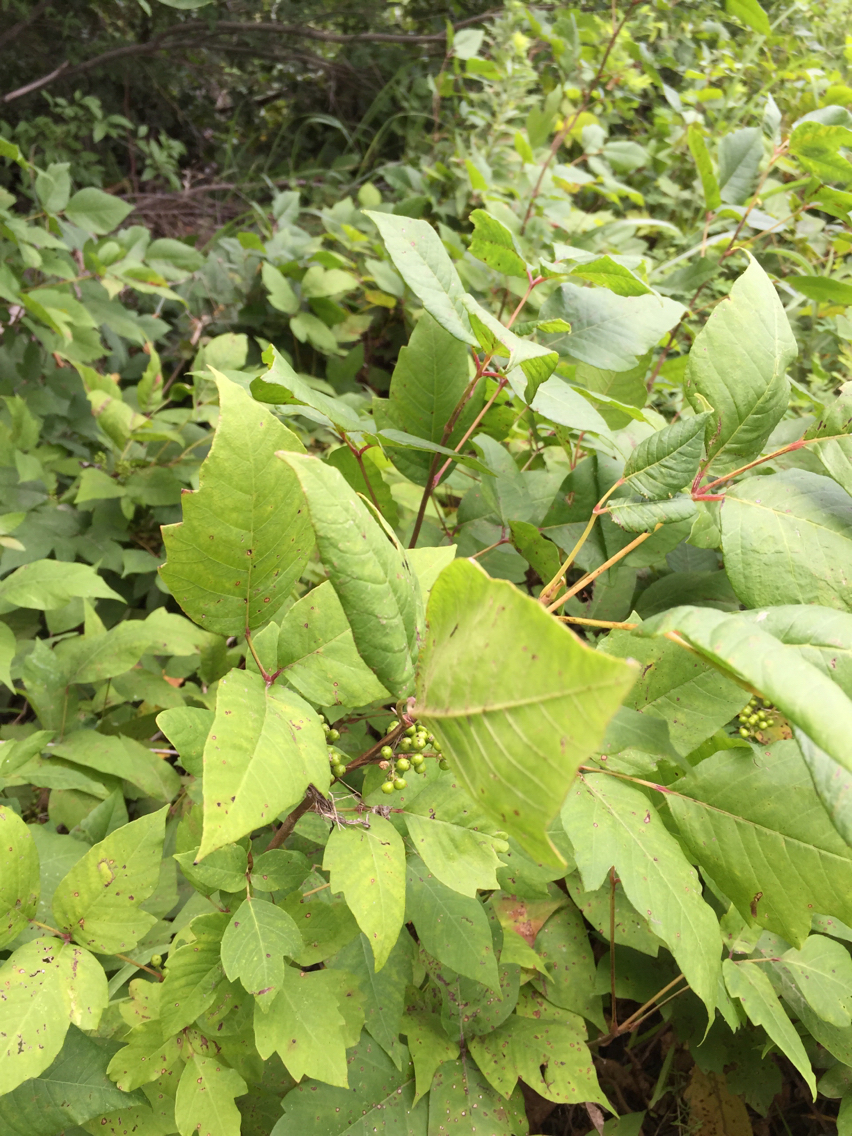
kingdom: Plantae
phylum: Tracheophyta
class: Magnoliopsida
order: Sapindales
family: Anacardiaceae
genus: Toxicodendron
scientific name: Toxicodendron radicans
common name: Poison ivy
